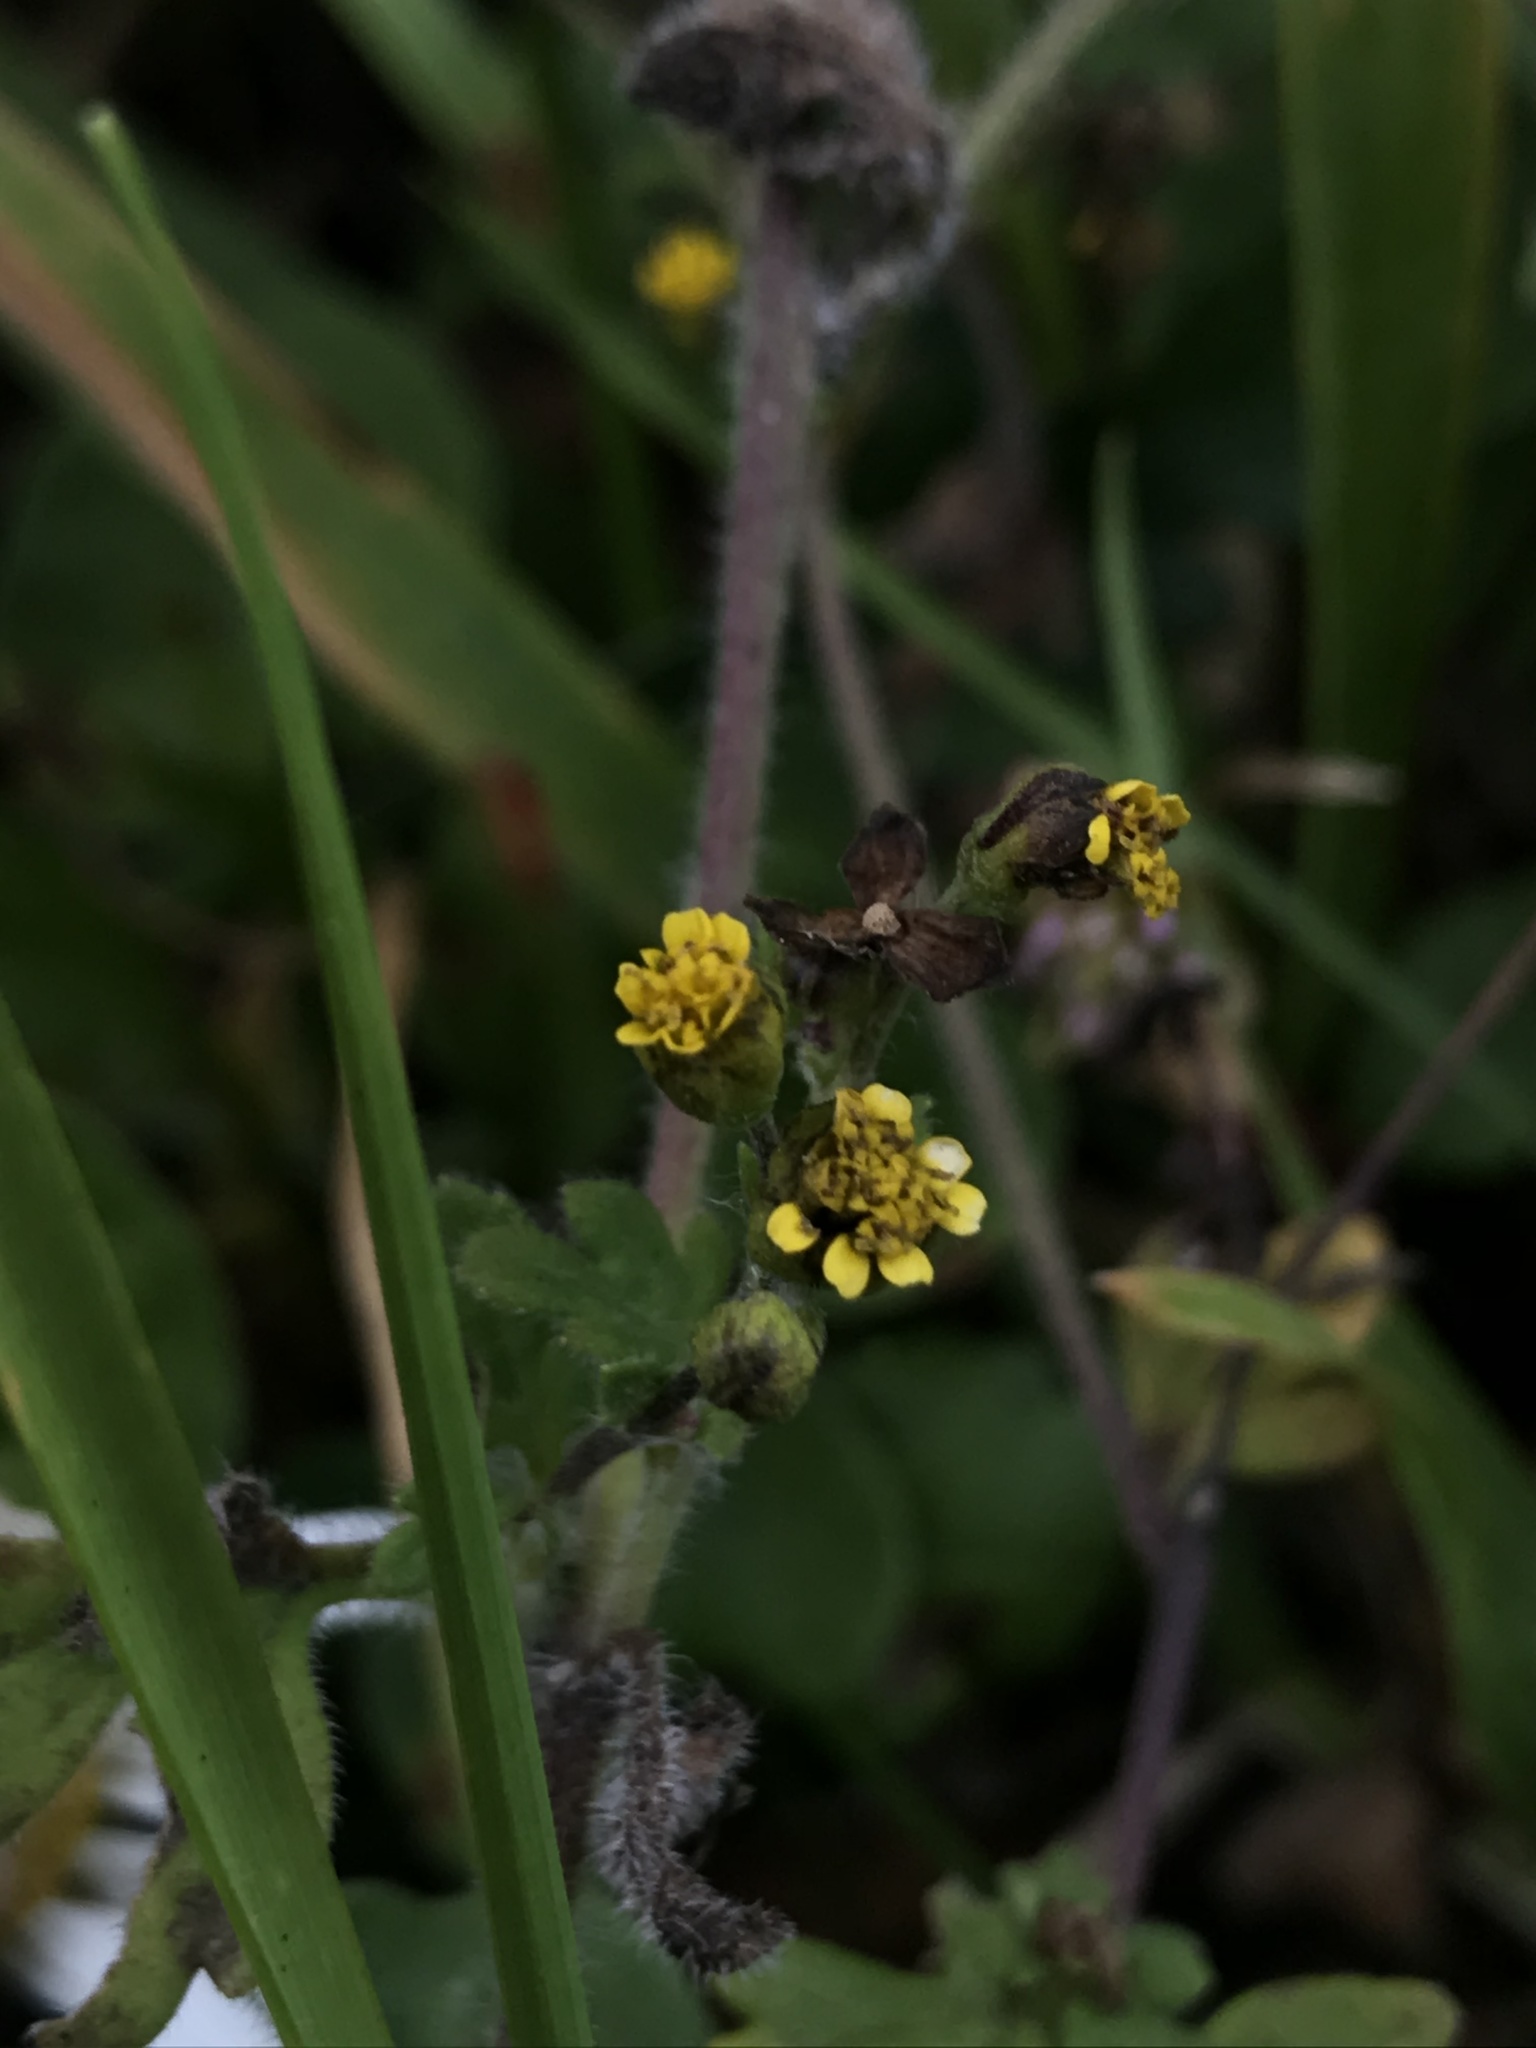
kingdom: Plantae
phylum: Tracheophyta
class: Magnoliopsida
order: Asterales
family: Asteraceae
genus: Villanova
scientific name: Villanova oppositifolia
